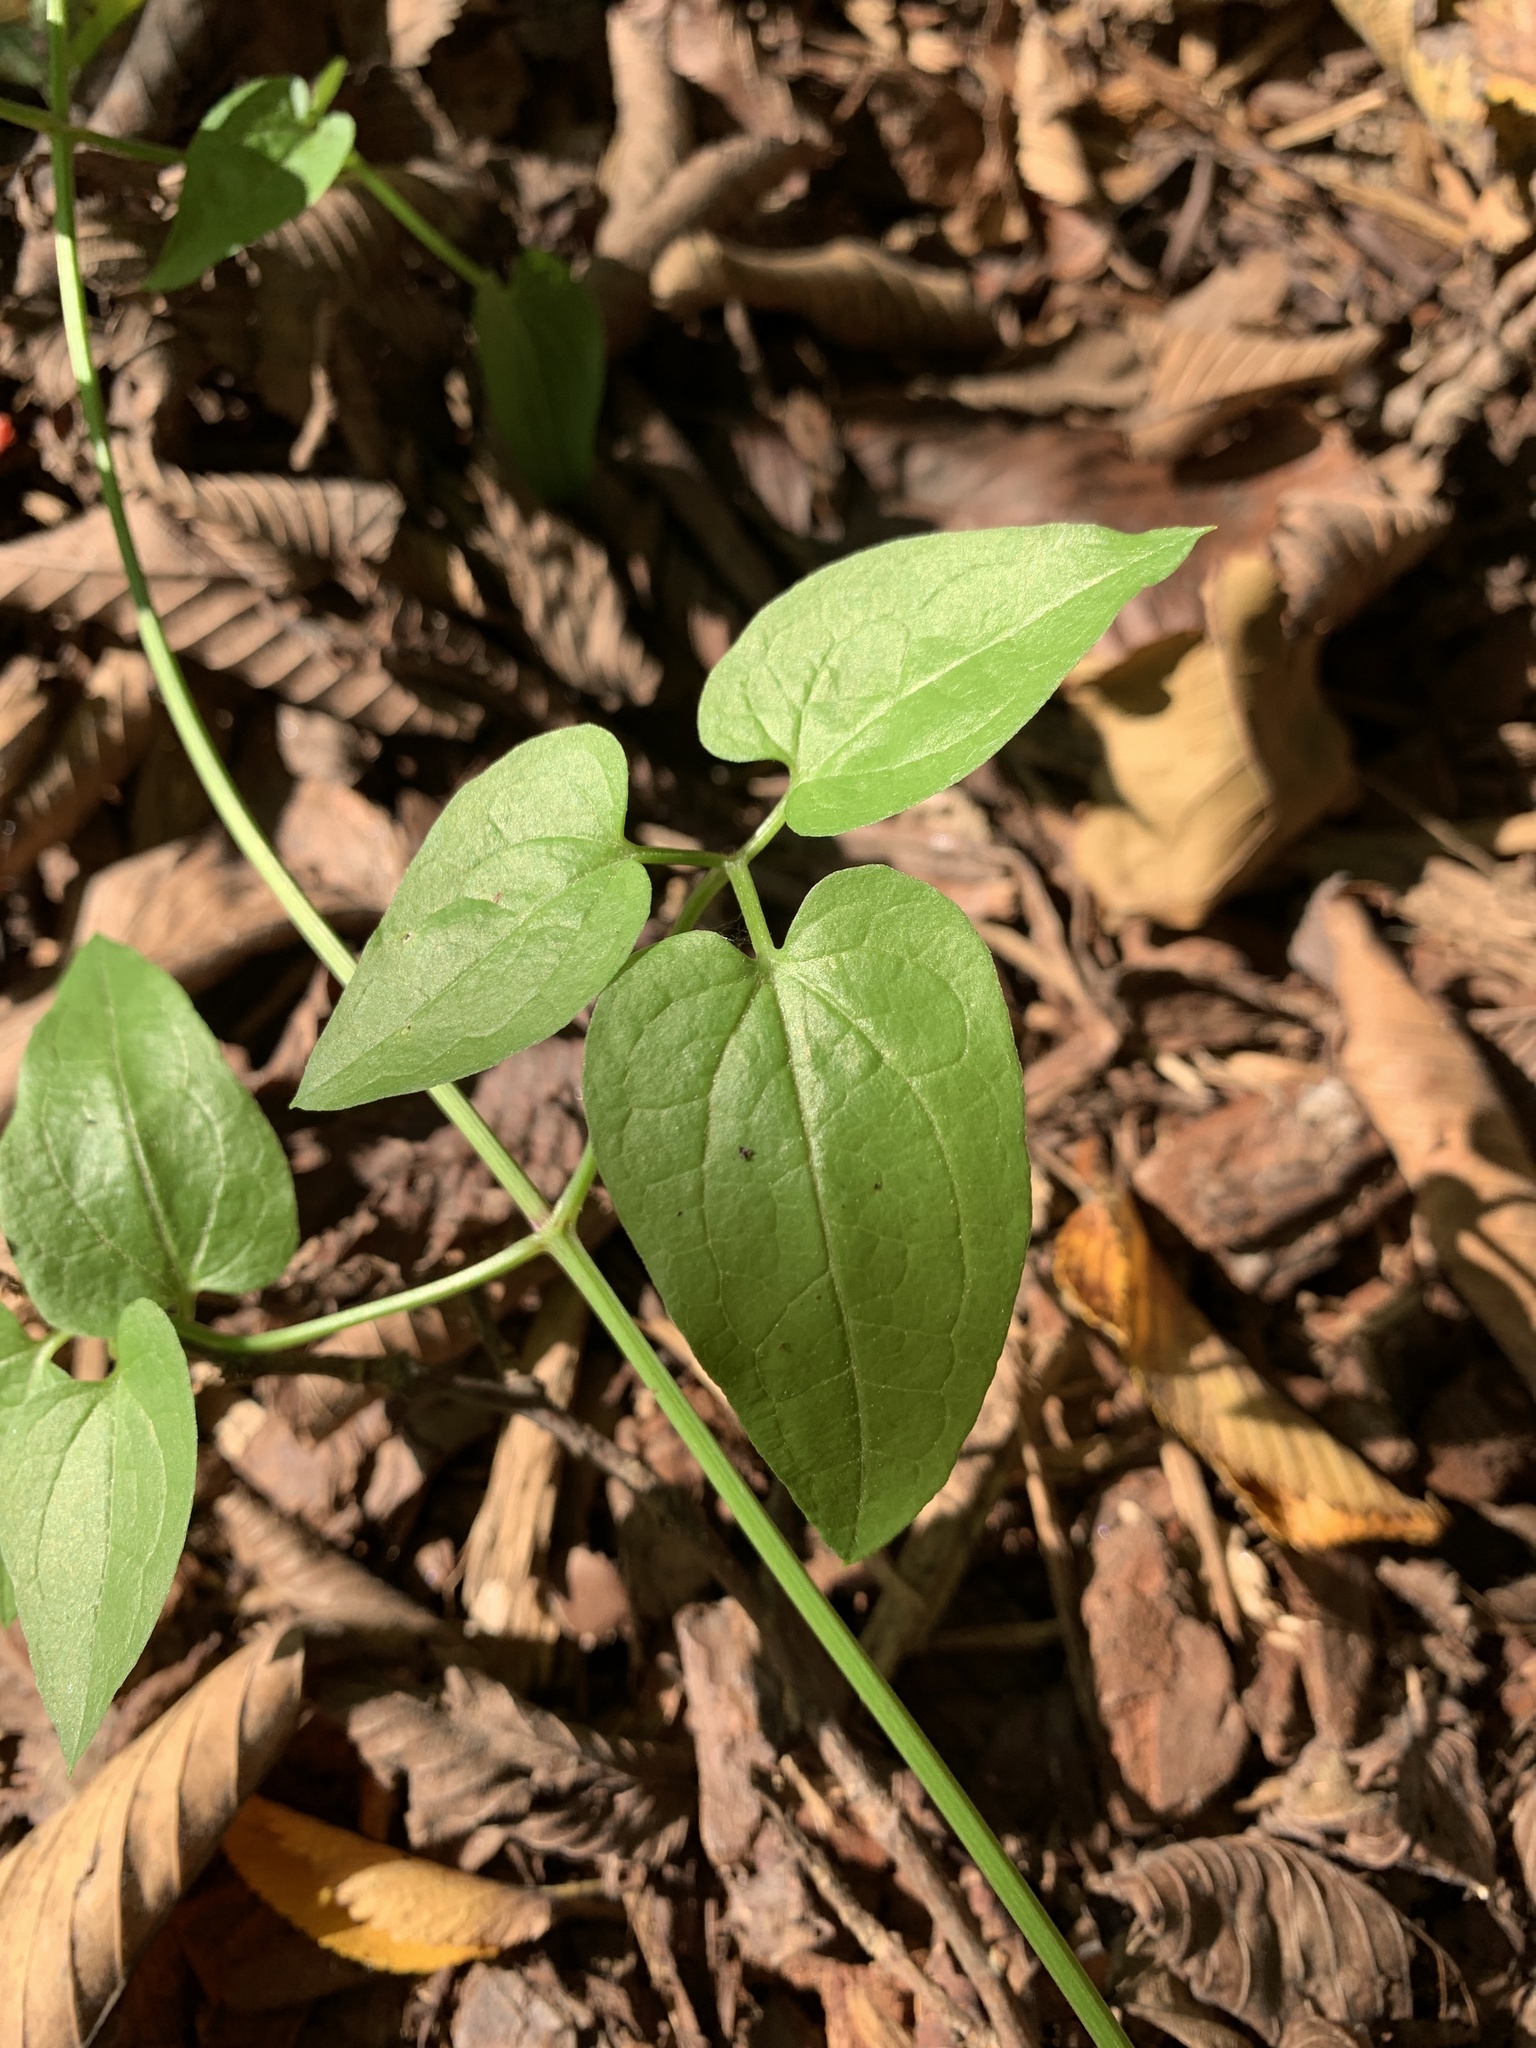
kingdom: Plantae
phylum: Tracheophyta
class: Magnoliopsida
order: Ranunculales
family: Ranunculaceae
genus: Clematis
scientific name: Clematis terniflora
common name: Sweet autumn clematis
